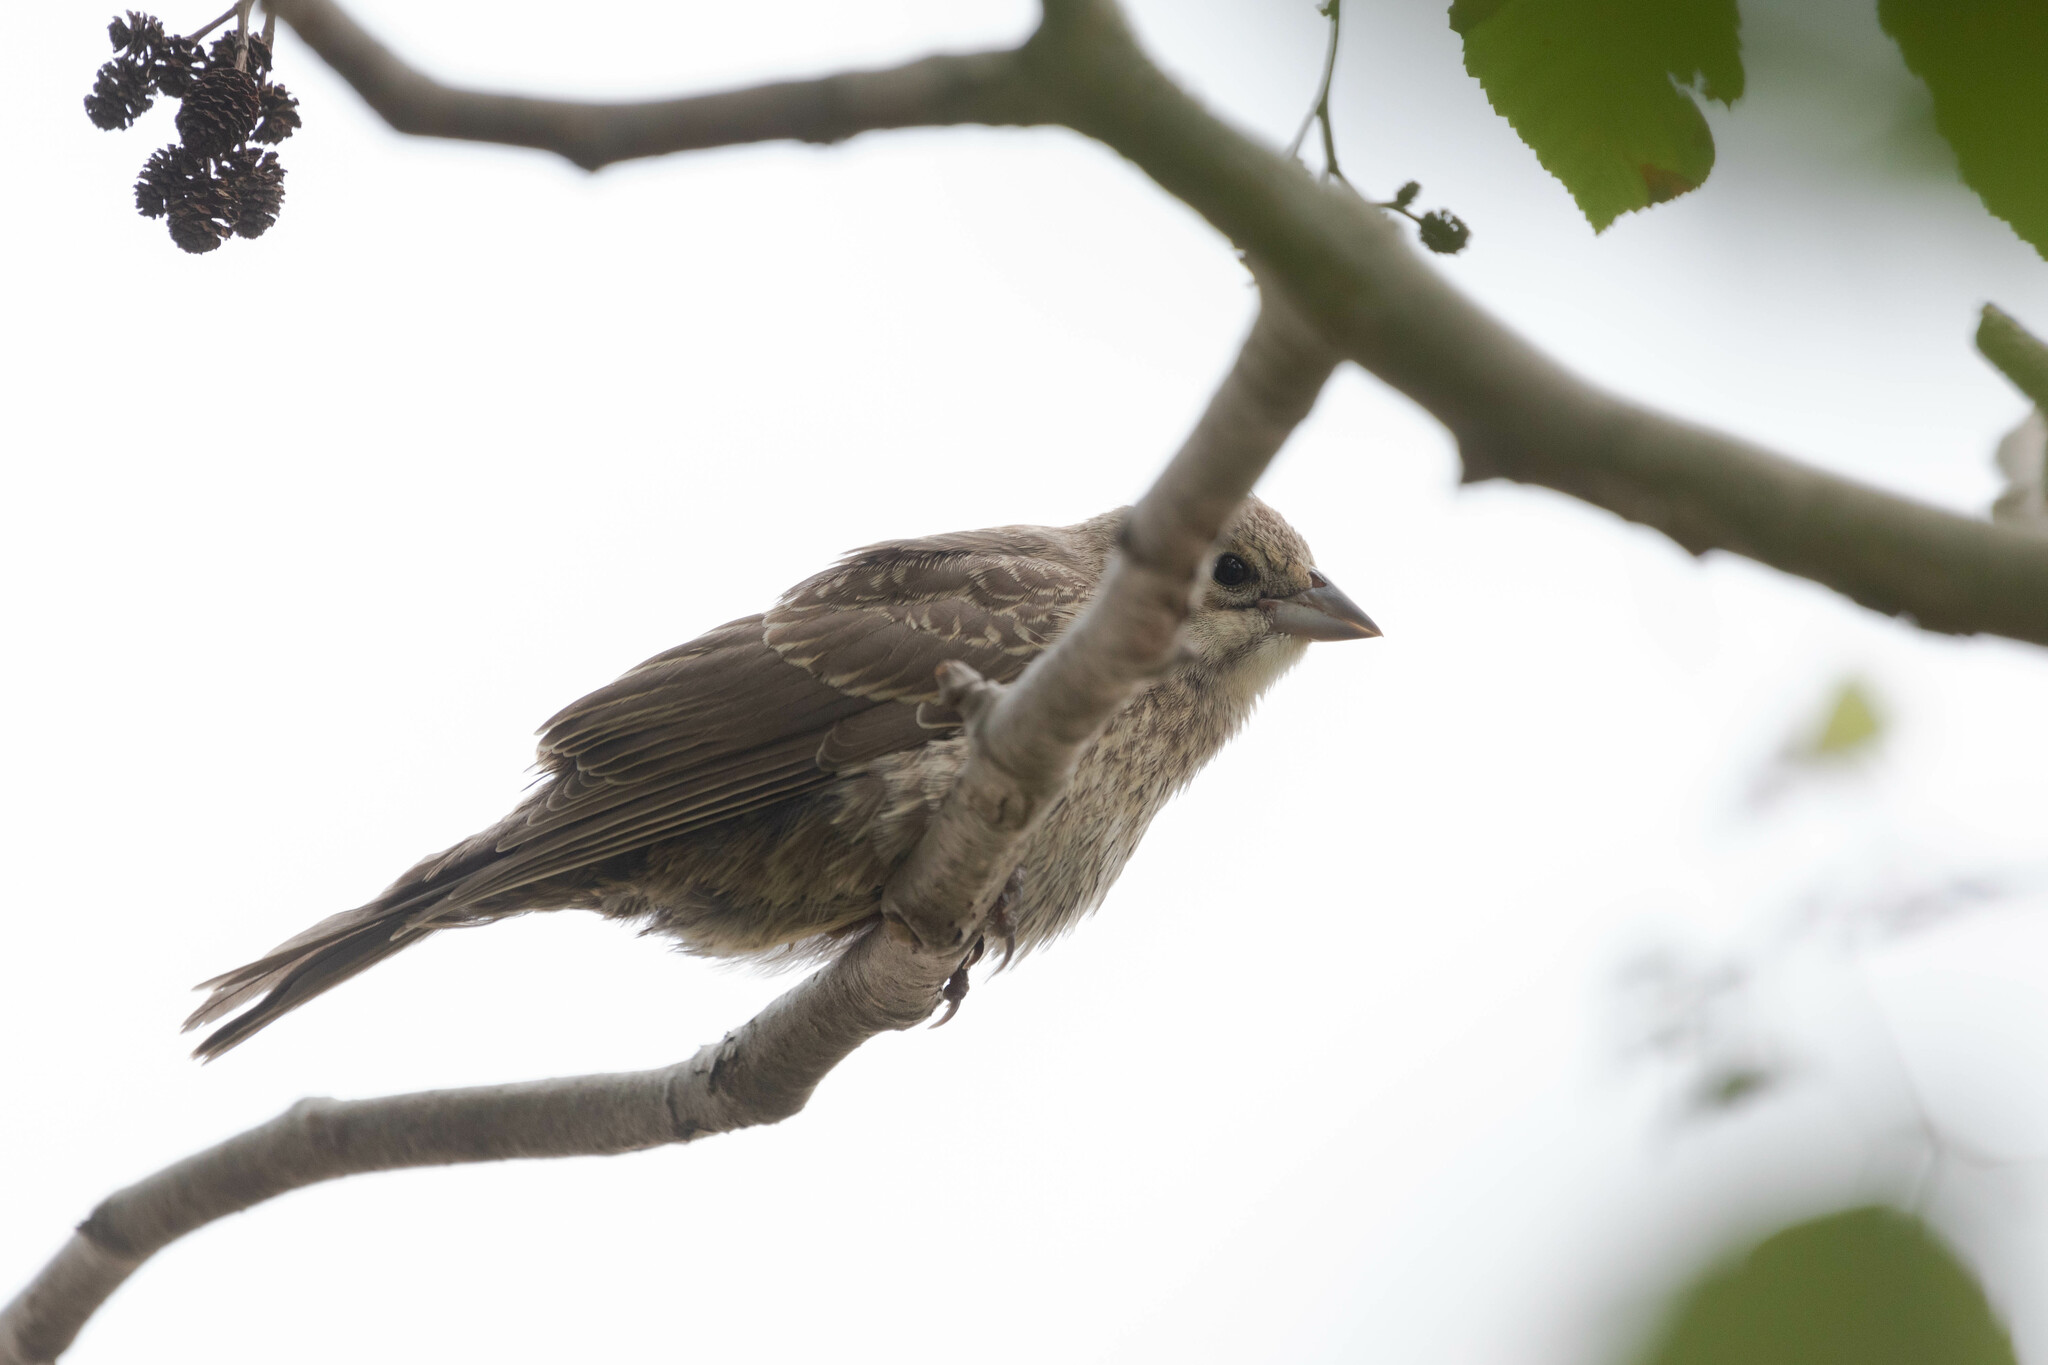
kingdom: Animalia
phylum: Chordata
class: Aves
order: Passeriformes
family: Icteridae
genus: Molothrus
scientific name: Molothrus ater
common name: Brown-headed cowbird
